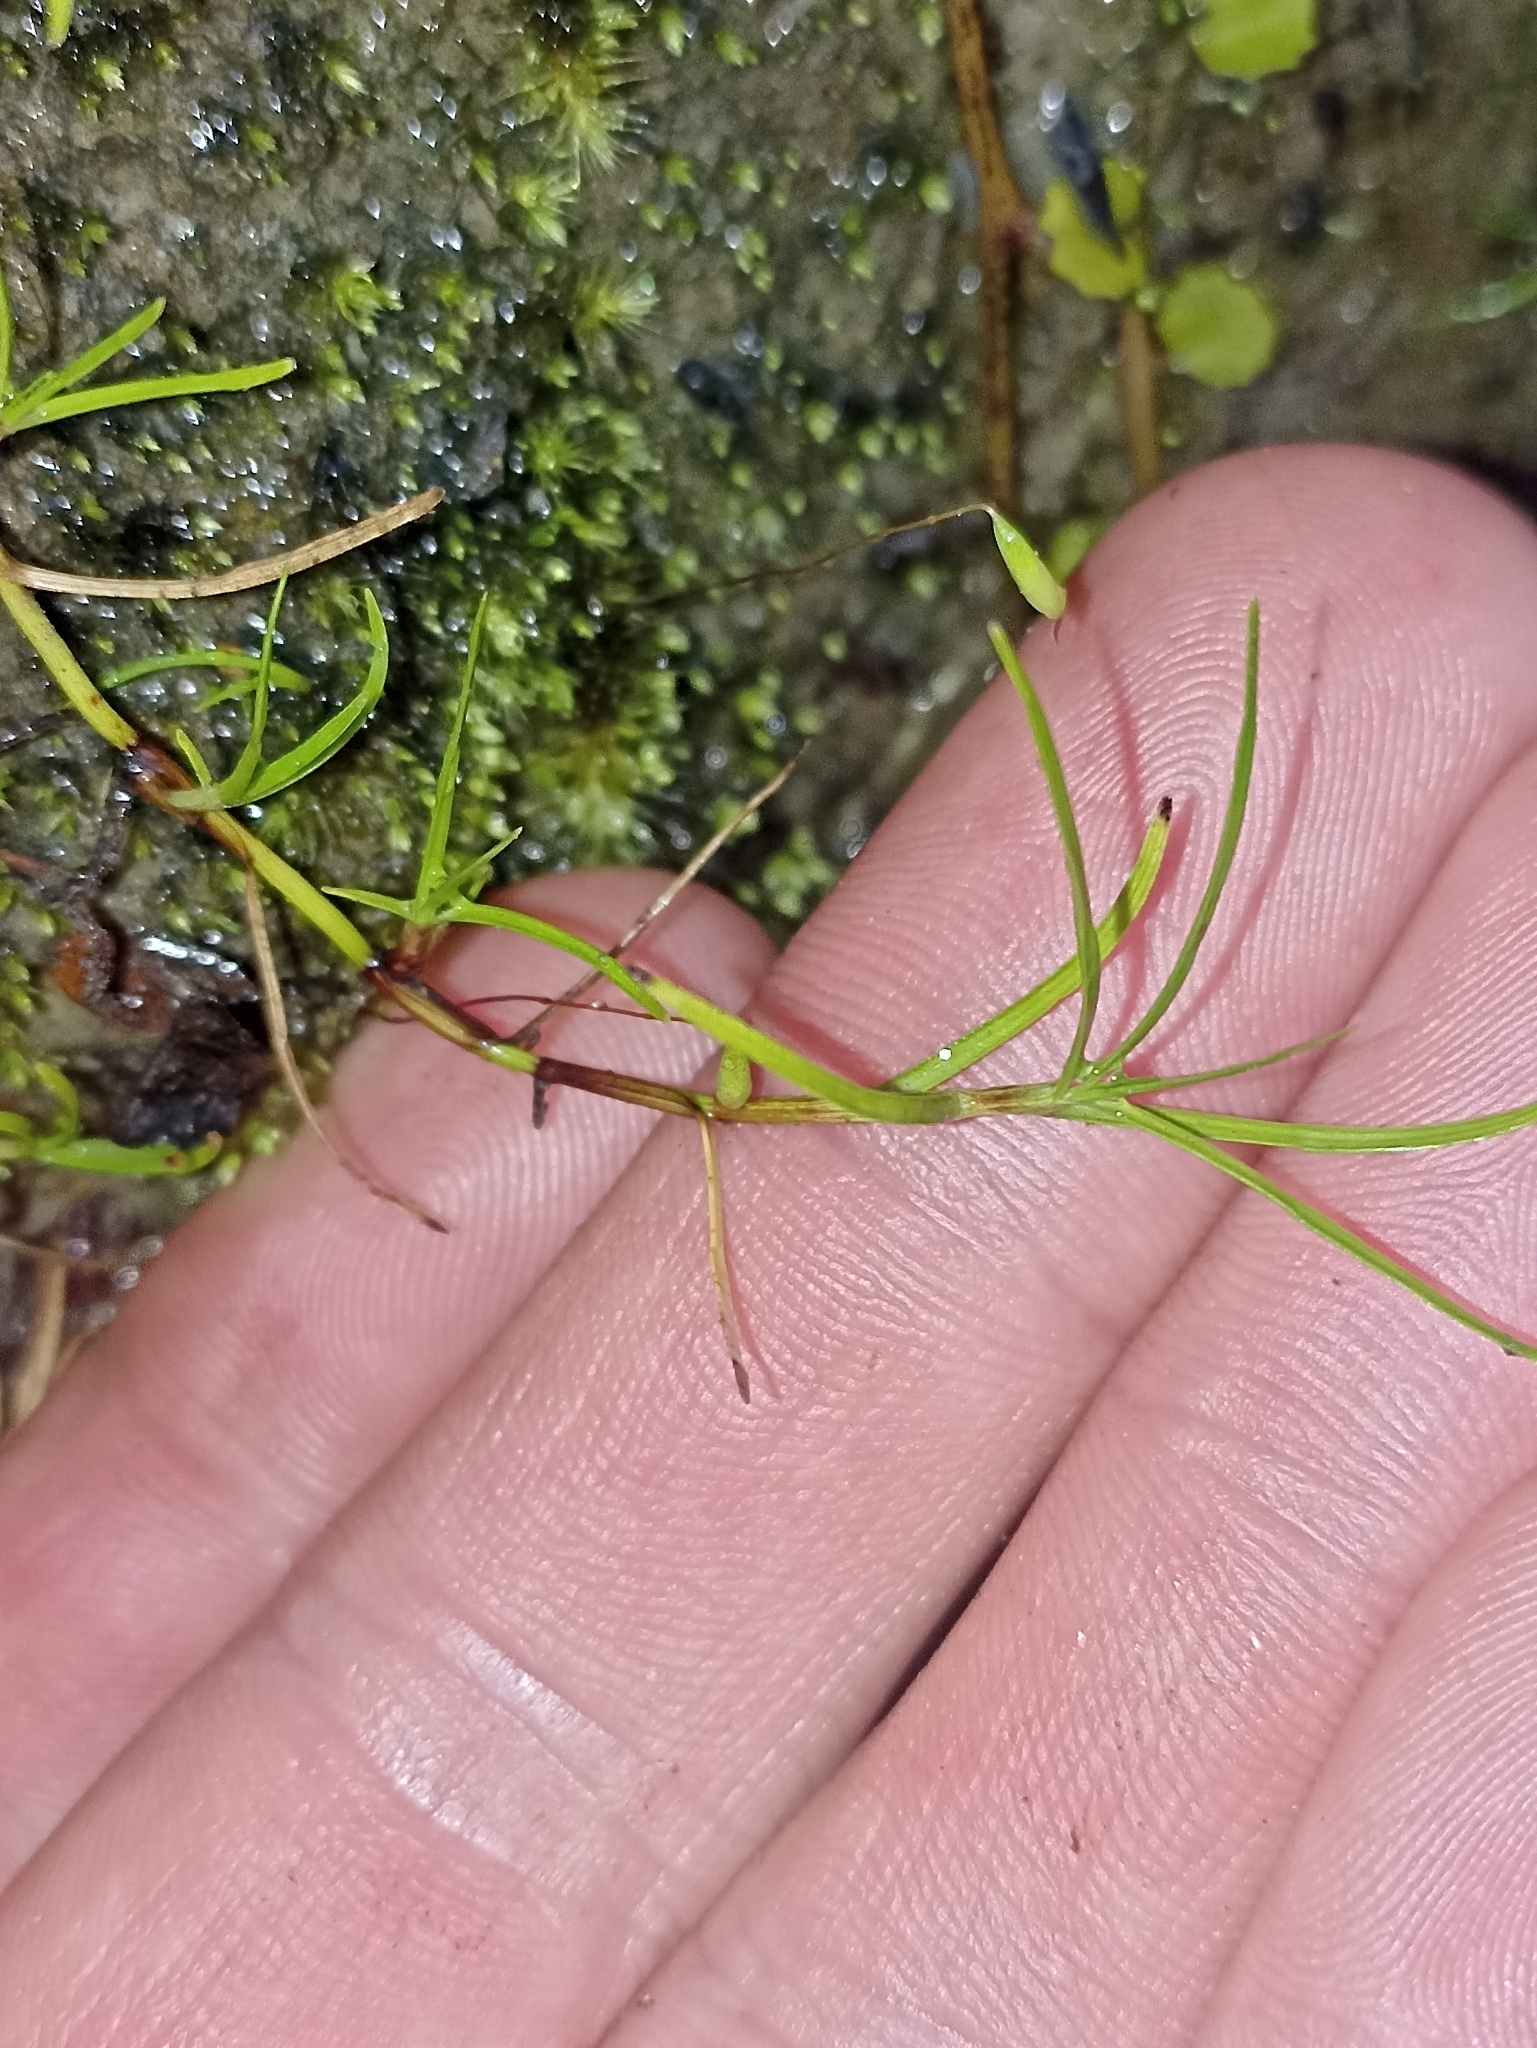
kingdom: Plantae
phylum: Tracheophyta
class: Liliopsida
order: Poales
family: Cyperaceae
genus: Schoenus
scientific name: Schoenus maschalinus
